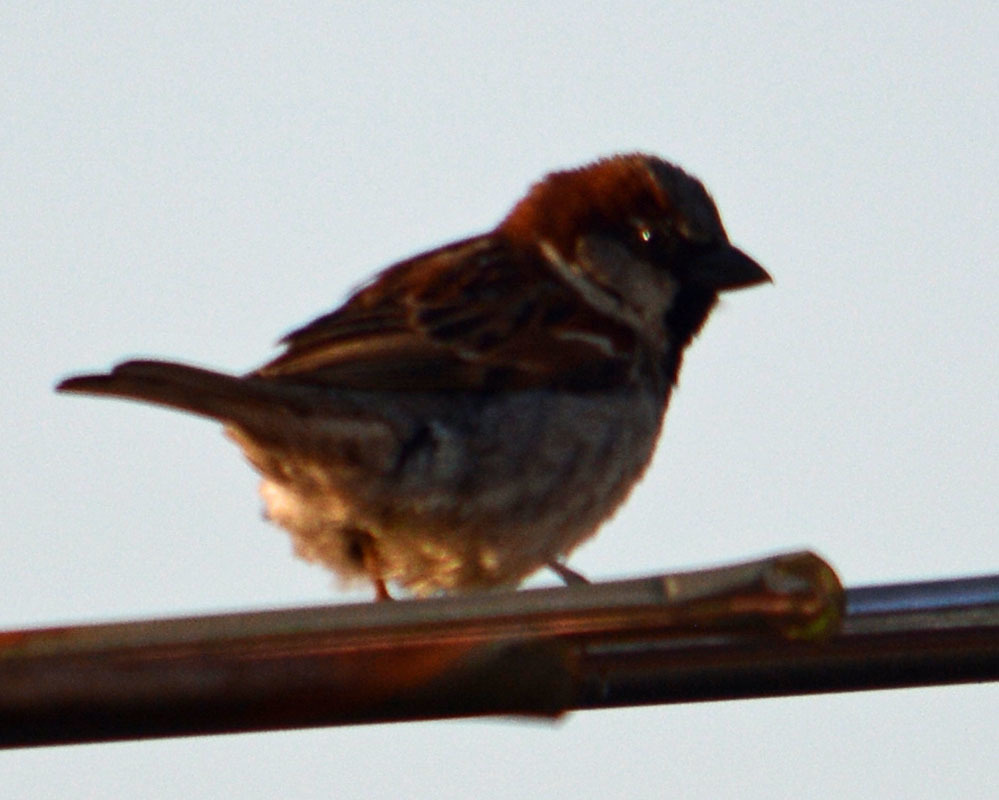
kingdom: Animalia
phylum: Chordata
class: Aves
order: Passeriformes
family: Passeridae
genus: Passer
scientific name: Passer domesticus
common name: House sparrow
